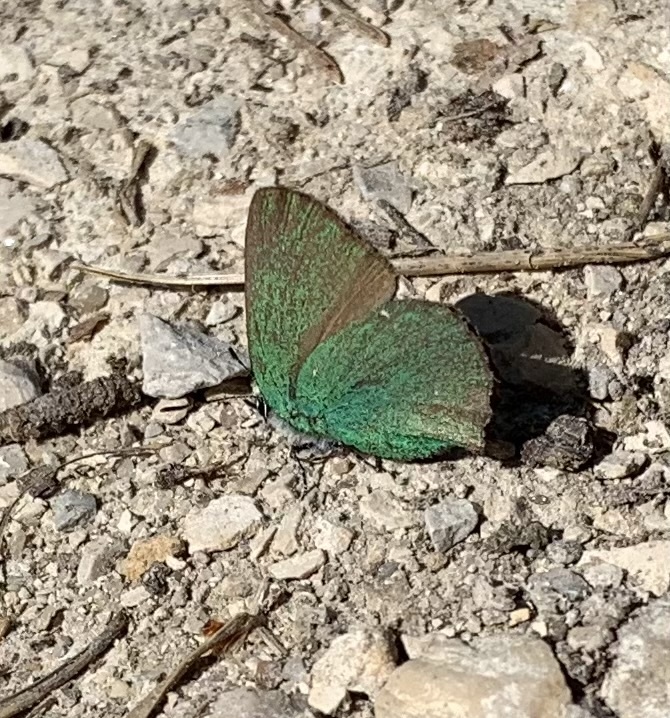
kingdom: Animalia
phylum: Arthropoda
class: Insecta
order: Lepidoptera
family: Lycaenidae
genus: Callophrys
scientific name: Callophrys rubi
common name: Green hairstreak
